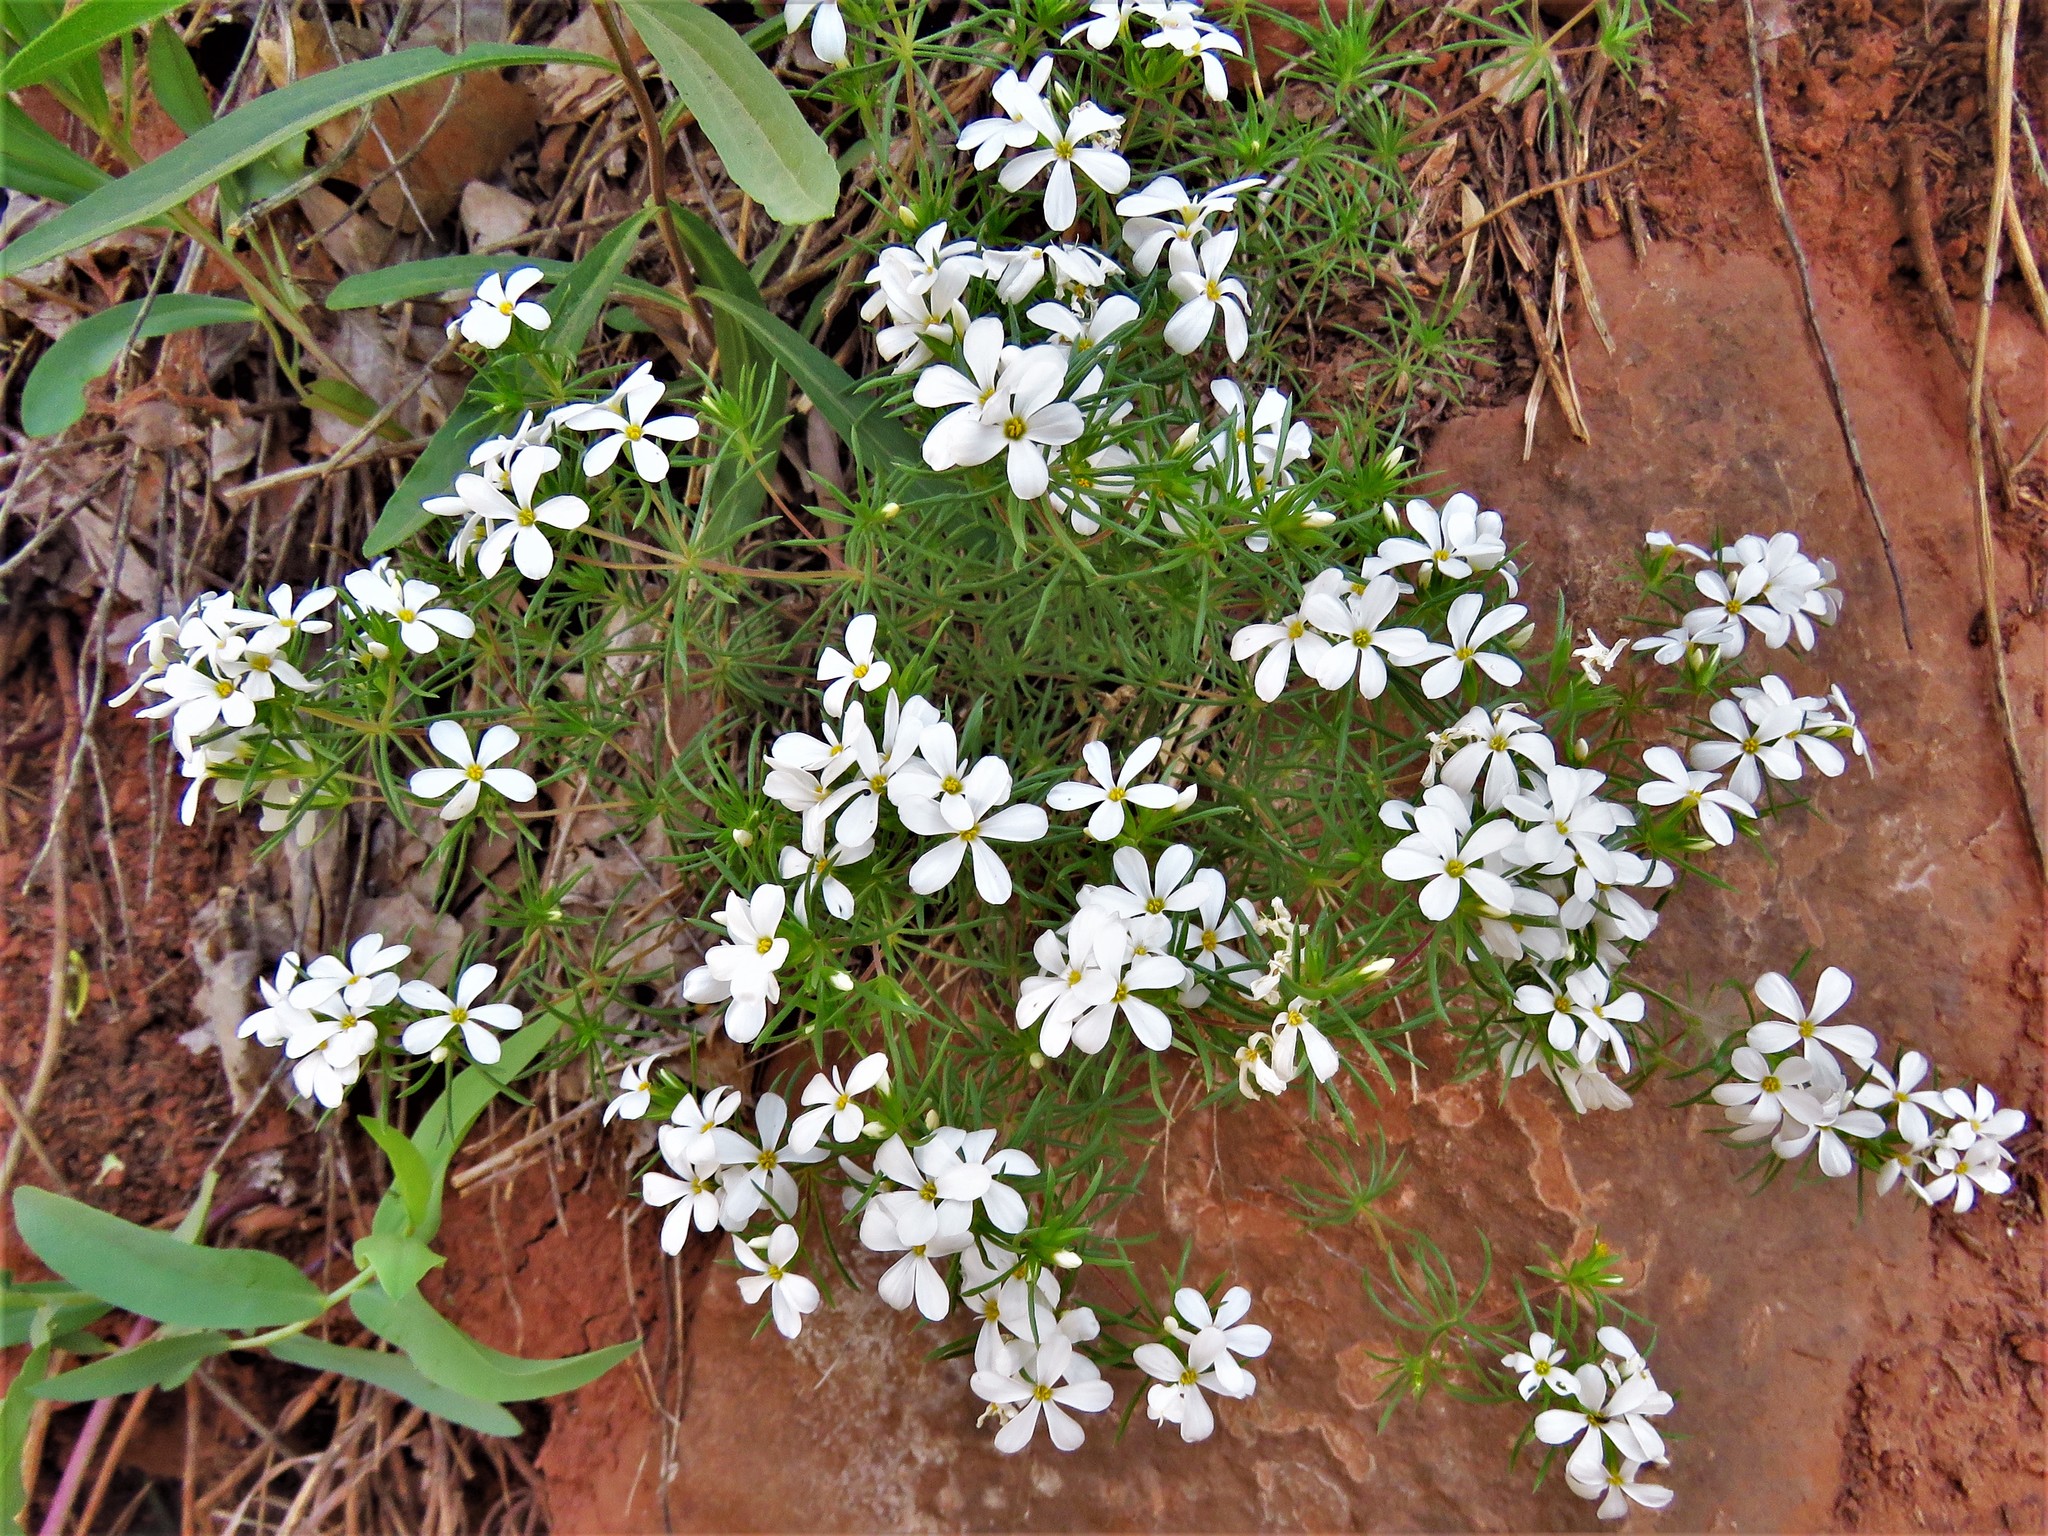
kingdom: Plantae
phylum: Tracheophyta
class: Magnoliopsida
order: Ericales
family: Polemoniaceae
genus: Leptosiphon
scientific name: Leptosiphon nuttallii
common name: Nuttall's linanthus
